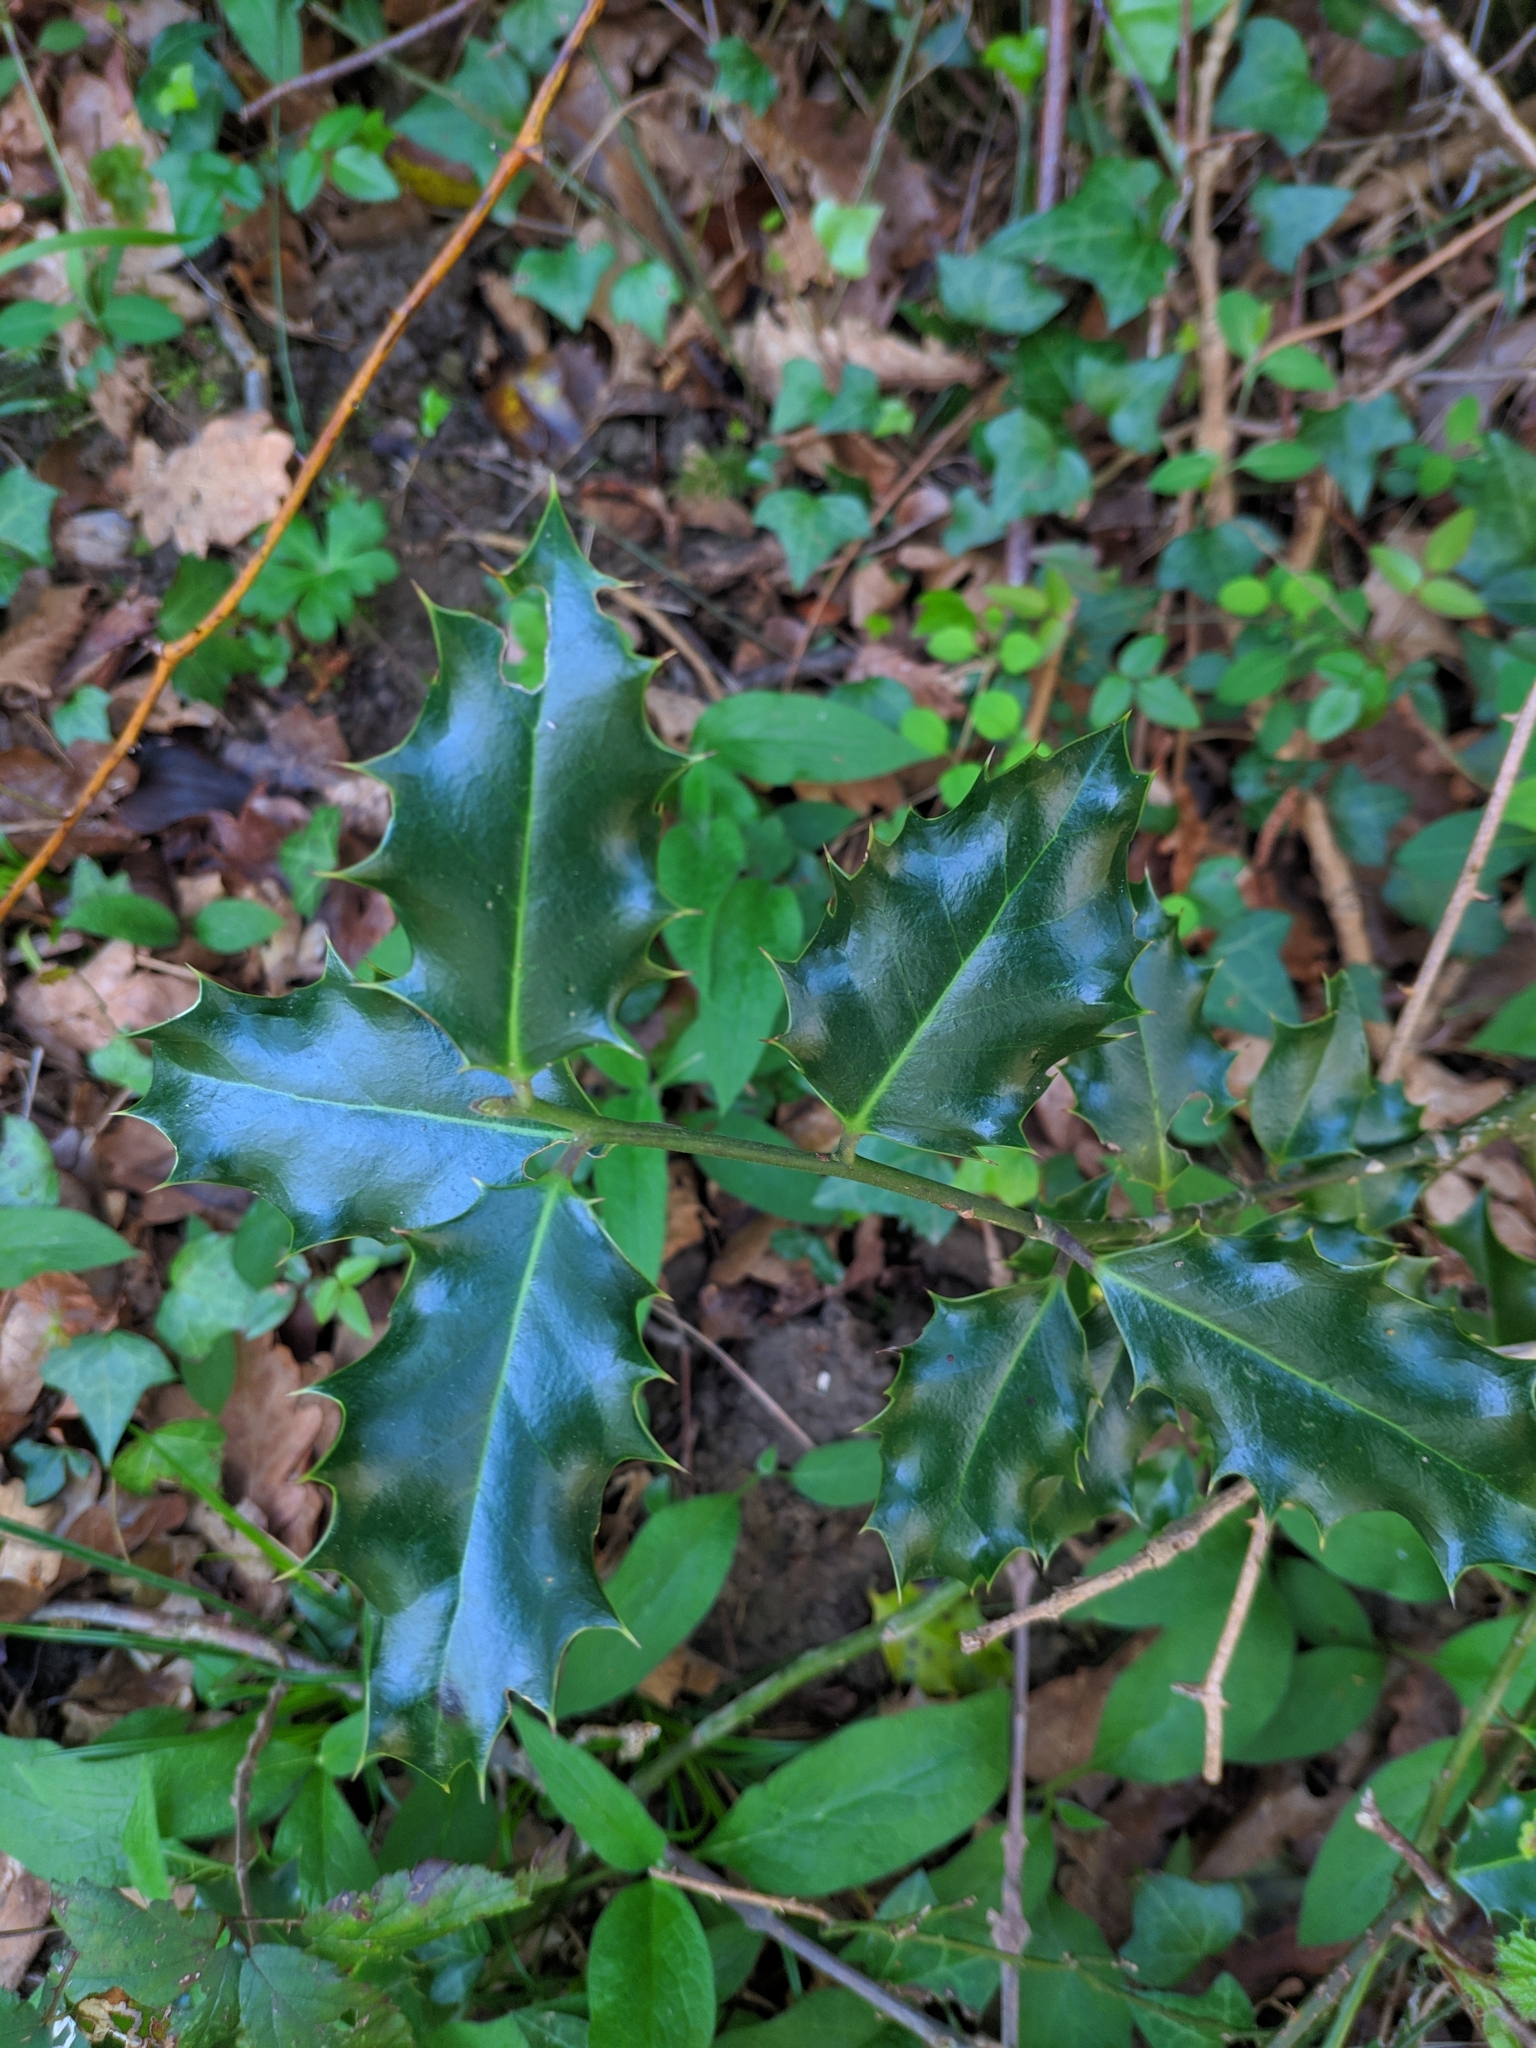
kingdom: Plantae
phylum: Tracheophyta
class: Magnoliopsida
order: Aquifoliales
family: Aquifoliaceae
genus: Ilex
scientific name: Ilex aquifolium
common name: English holly
